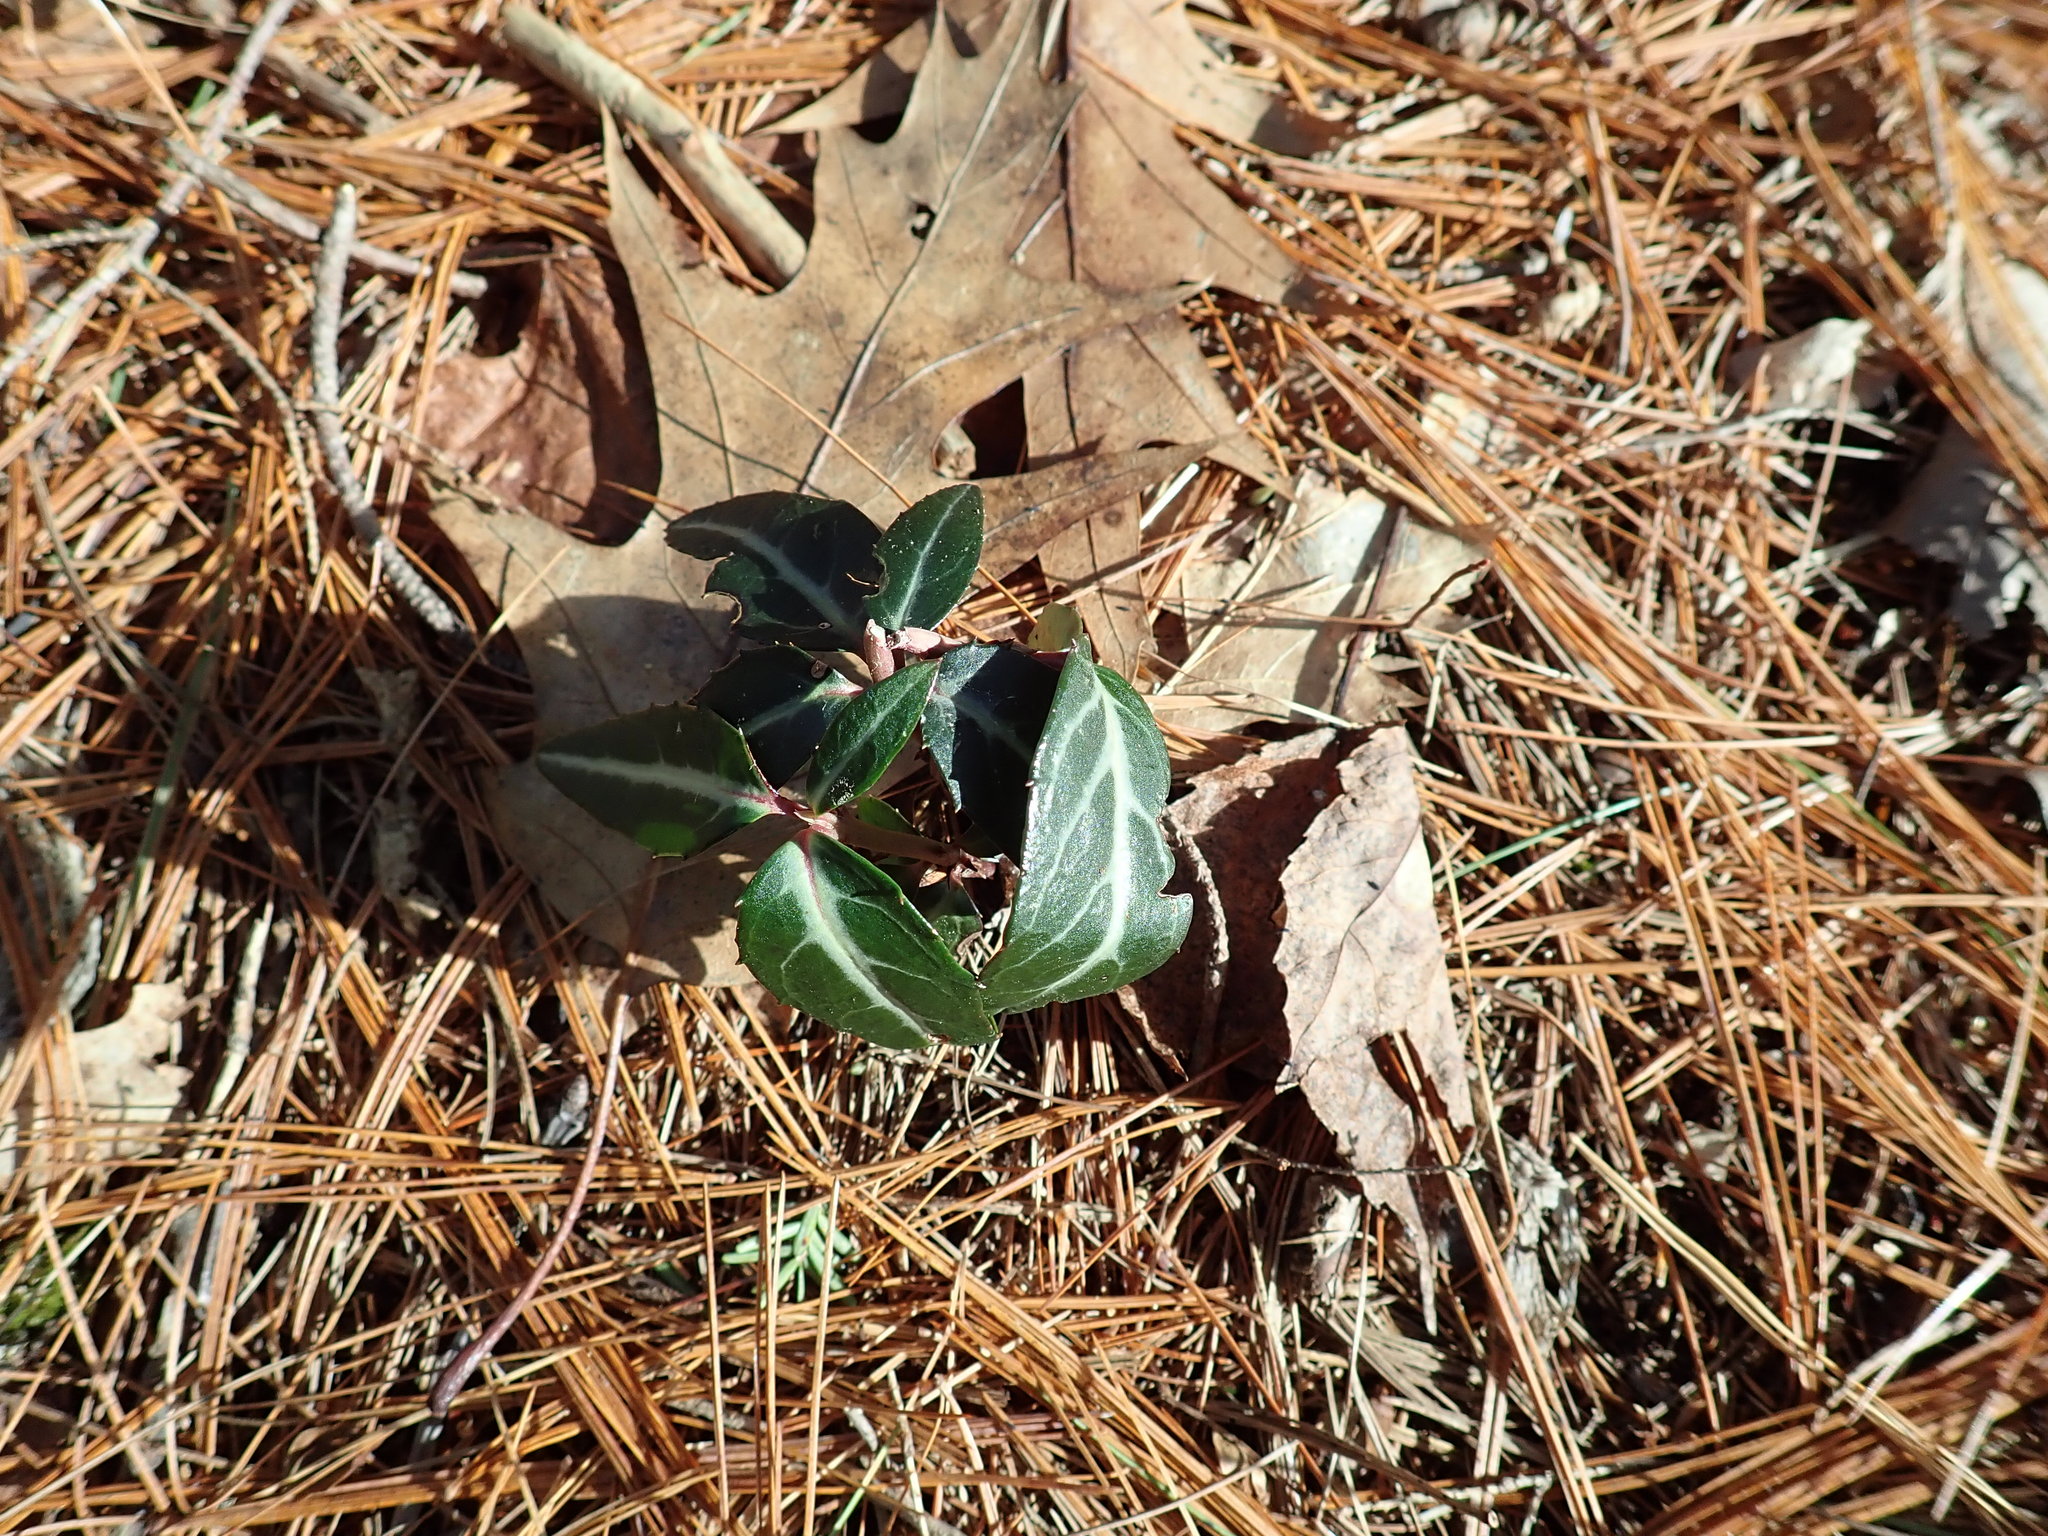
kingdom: Plantae
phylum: Tracheophyta
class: Magnoliopsida
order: Ericales
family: Ericaceae
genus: Chimaphila
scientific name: Chimaphila maculata
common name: Spotted pipsissewa
